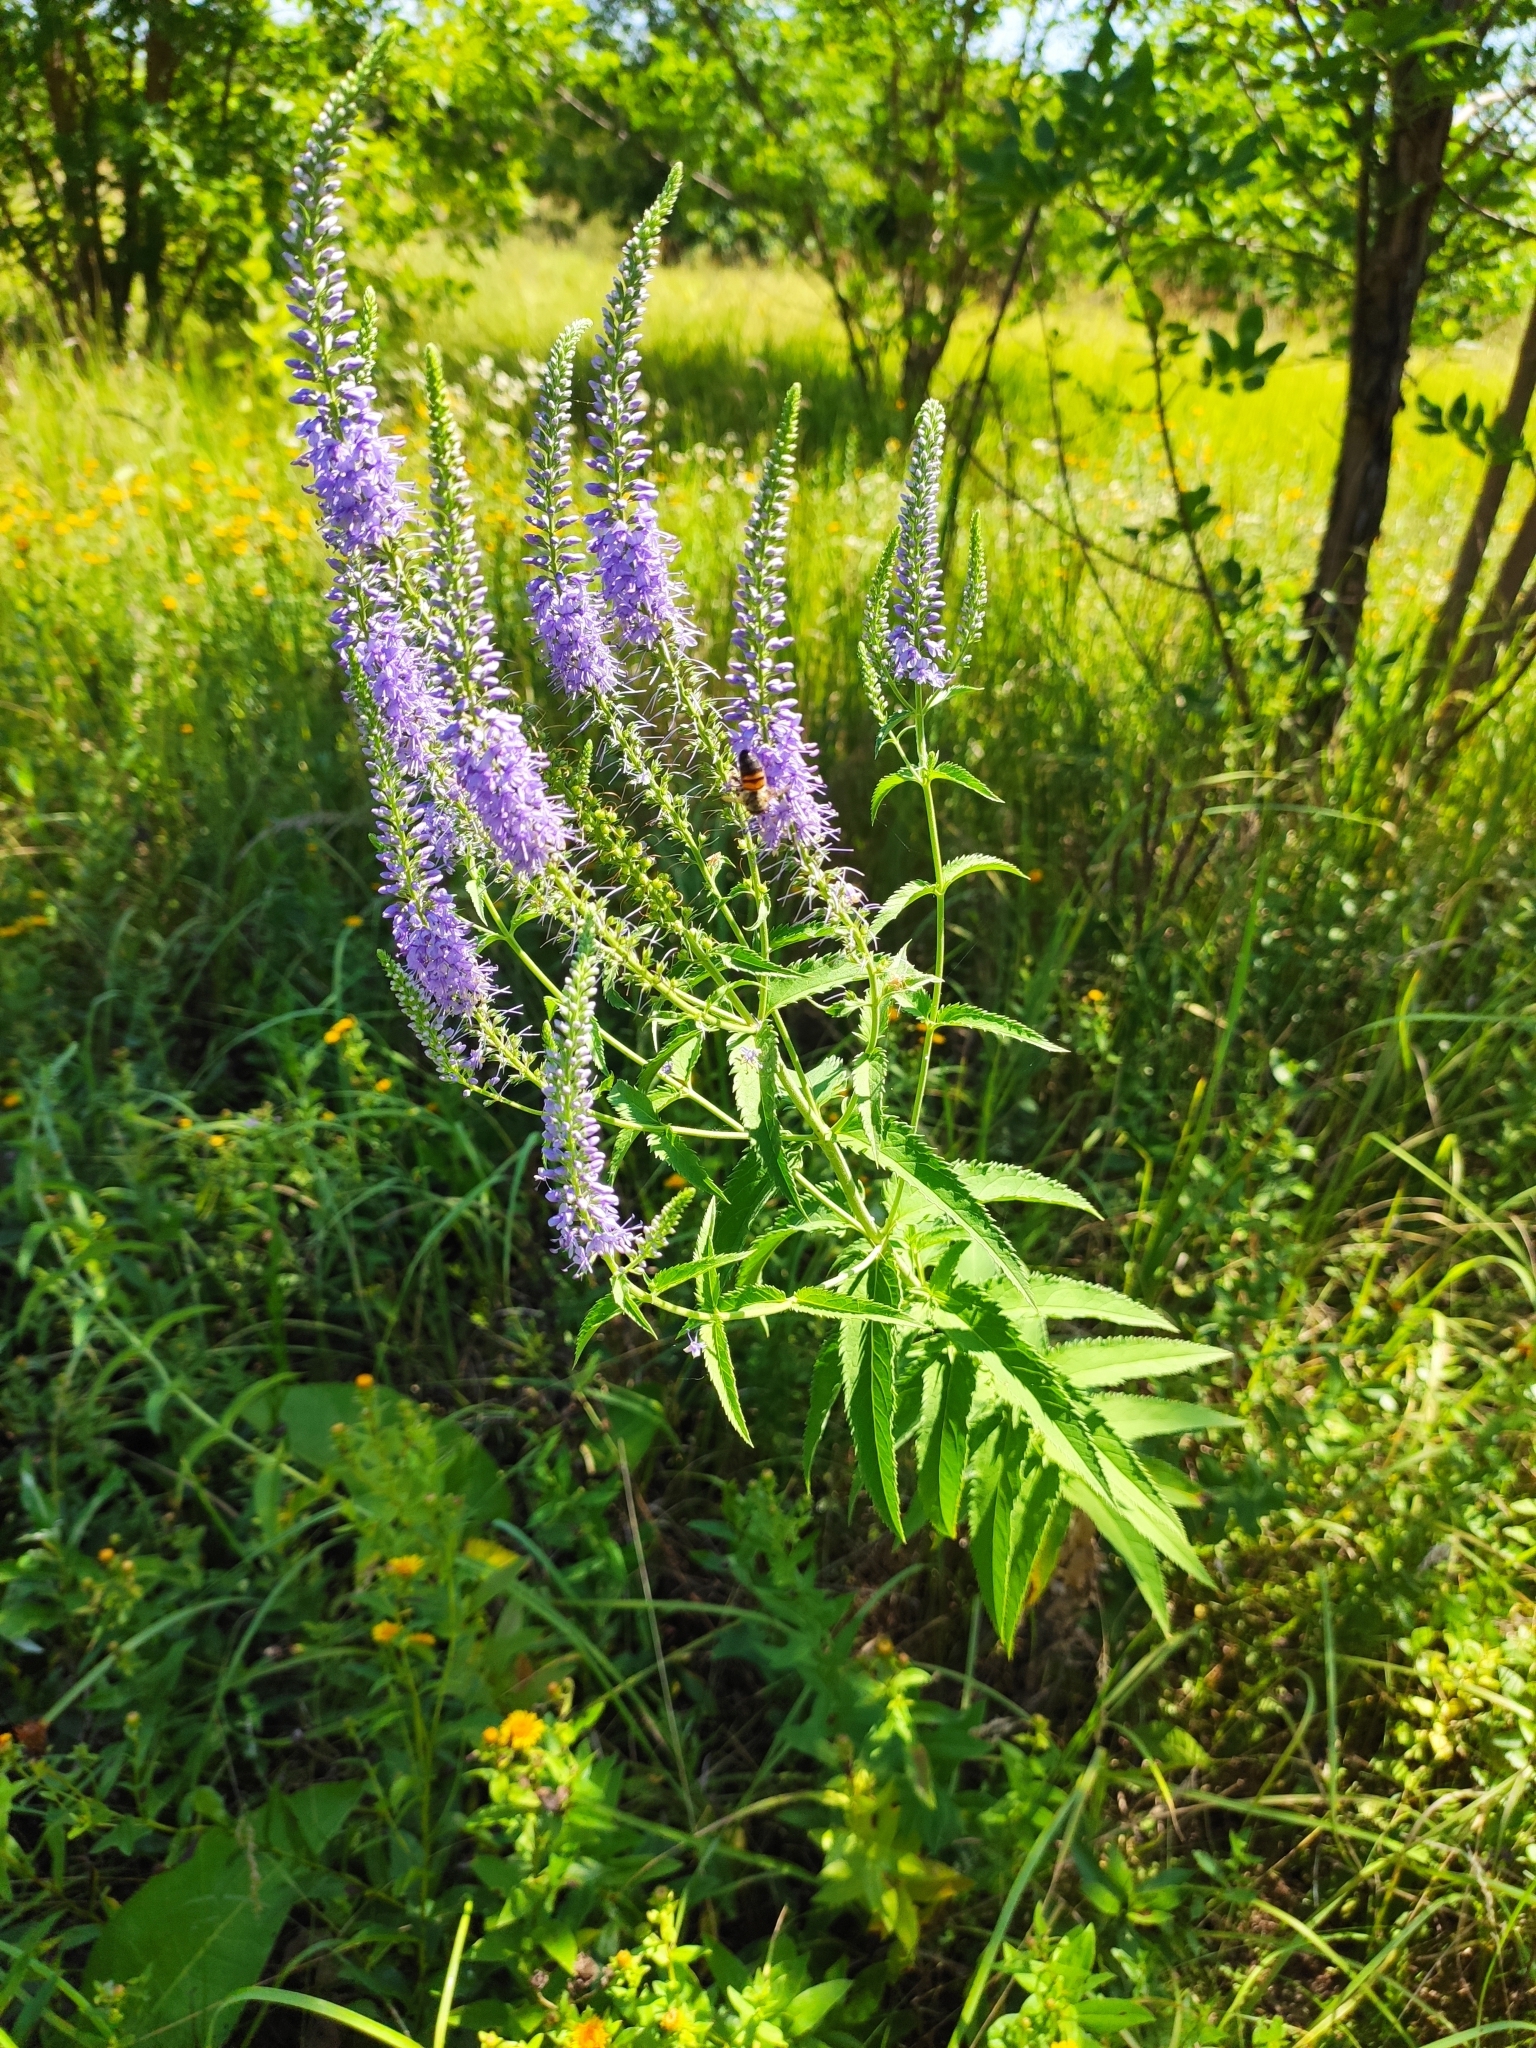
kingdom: Plantae
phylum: Tracheophyta
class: Magnoliopsida
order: Lamiales
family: Plantaginaceae
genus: Veronica
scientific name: Veronica longifolia
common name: Garden speedwell
